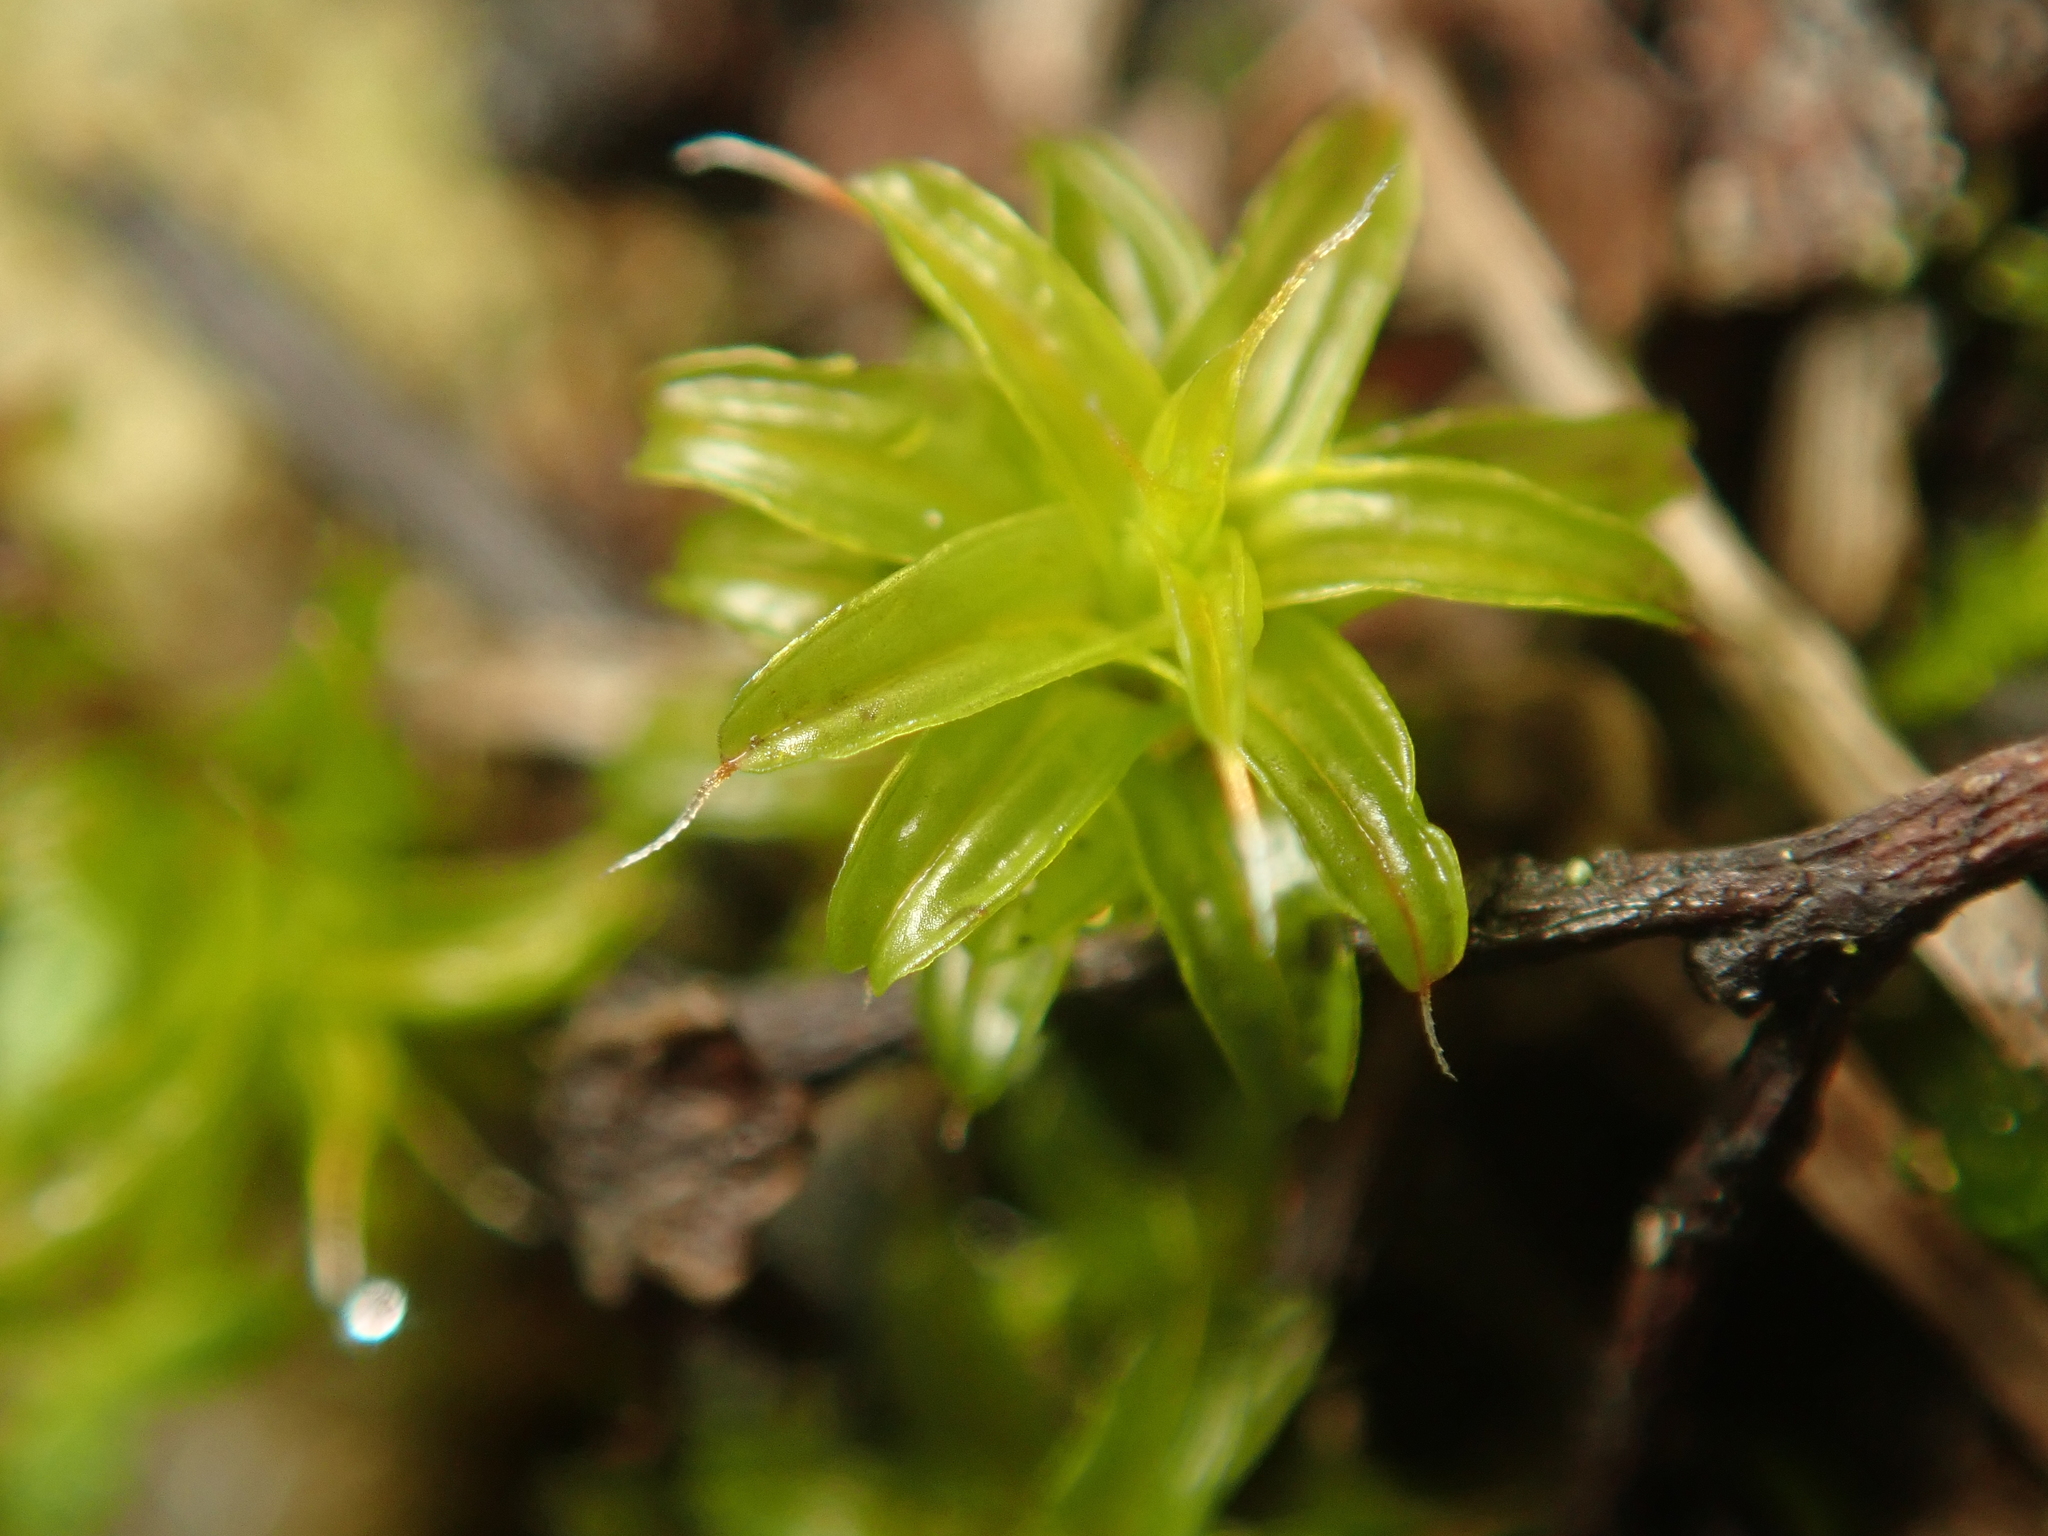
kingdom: Plantae
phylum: Bryophyta
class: Bryopsida
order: Pottiales
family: Pottiaceae
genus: Syntrichia
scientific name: Syntrichia ruralis
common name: Sidewalk screw moss
